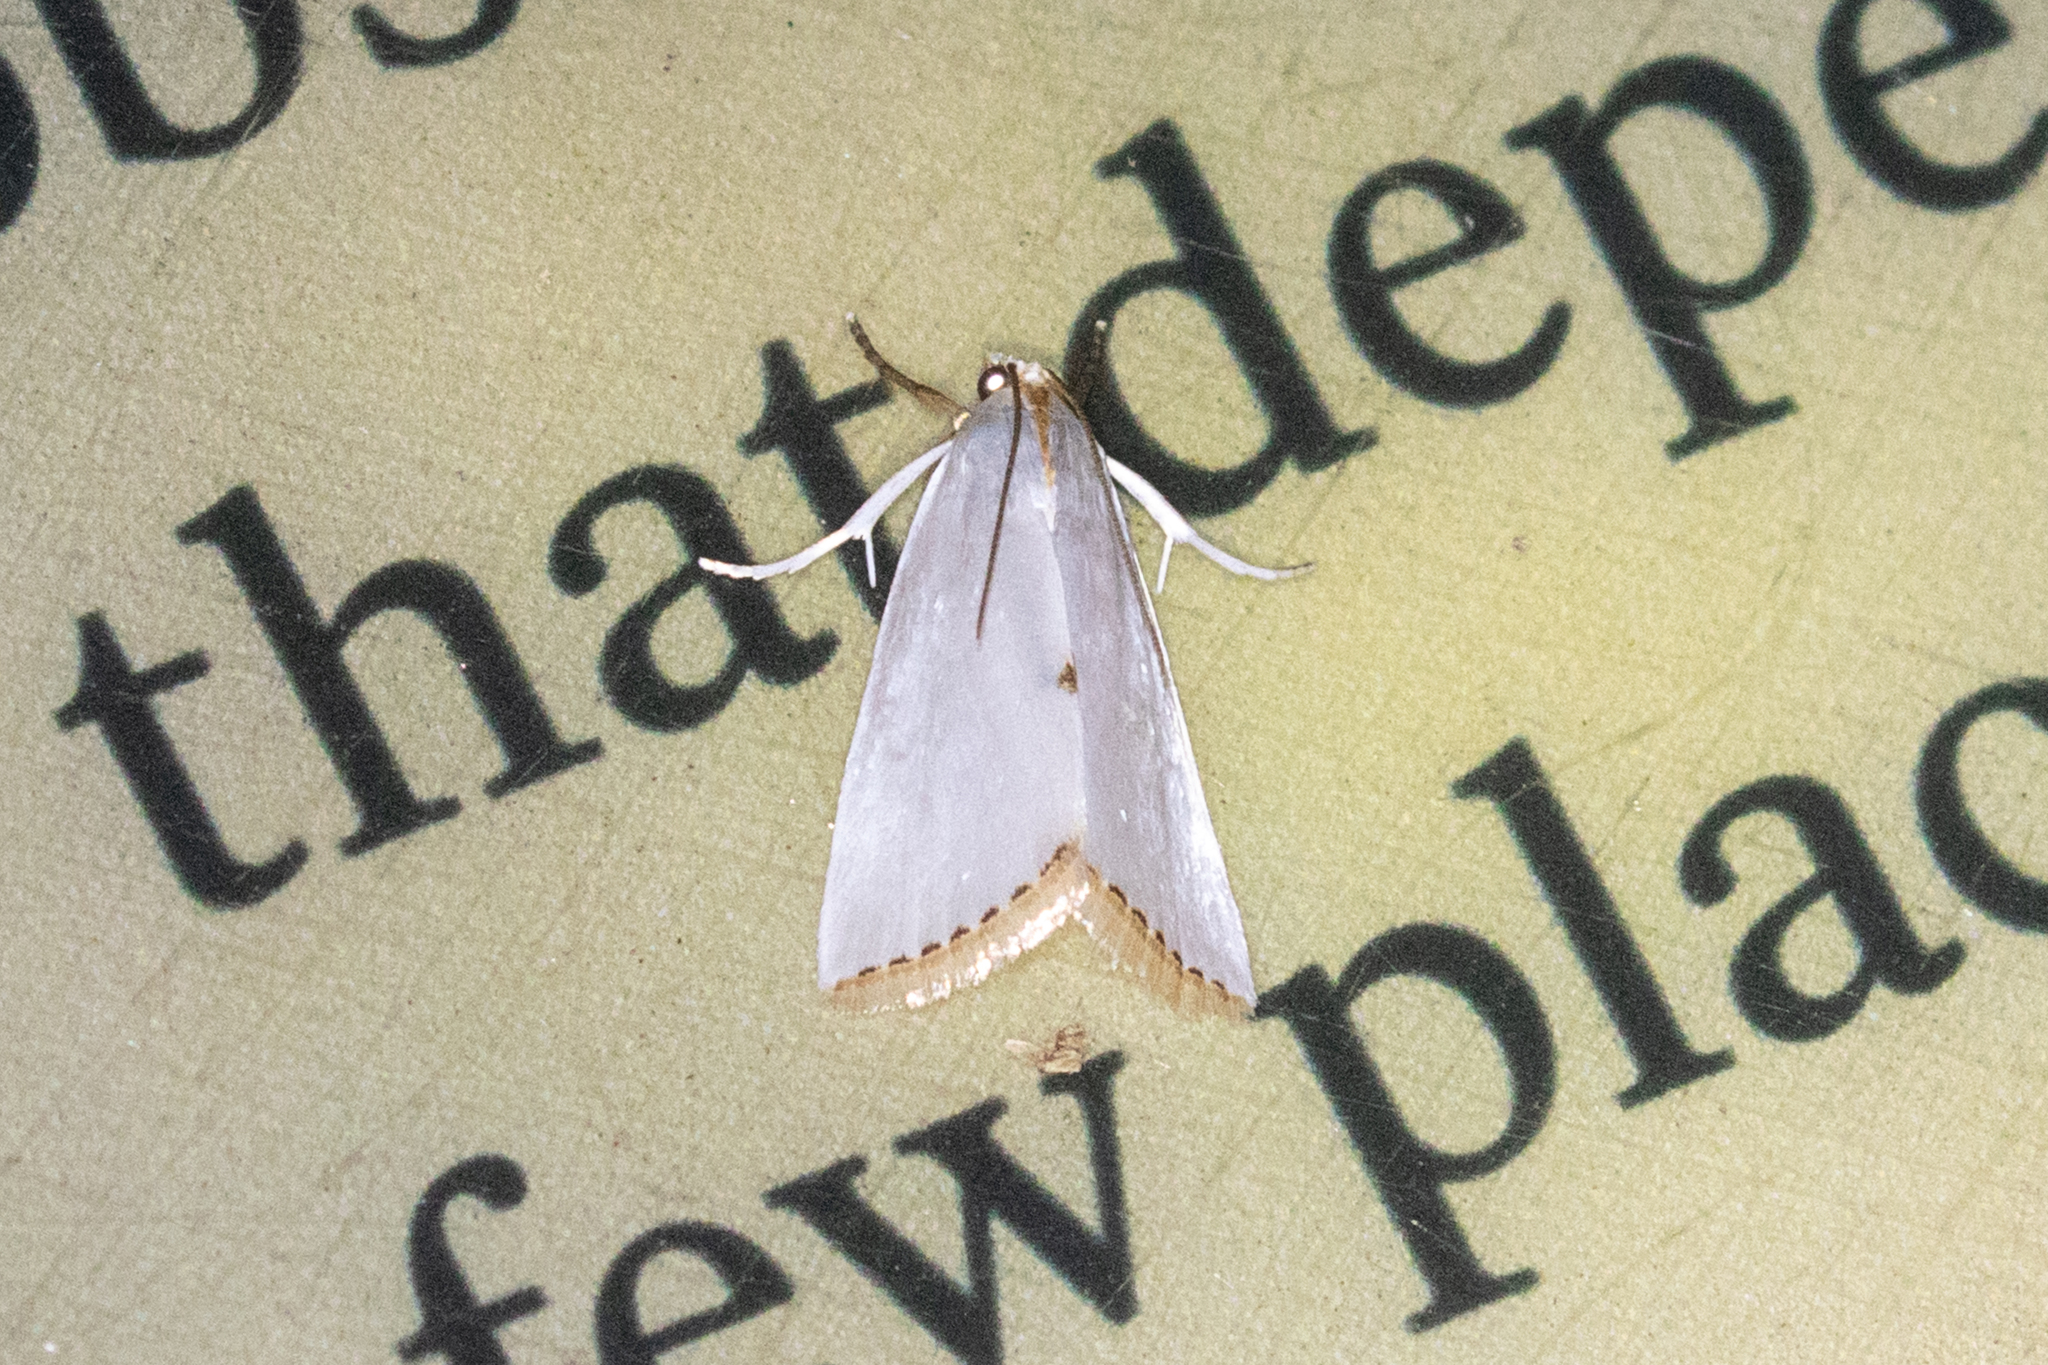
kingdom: Animalia
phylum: Arthropoda
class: Insecta
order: Lepidoptera
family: Crambidae
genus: Argyria
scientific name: Argyria nivalis
